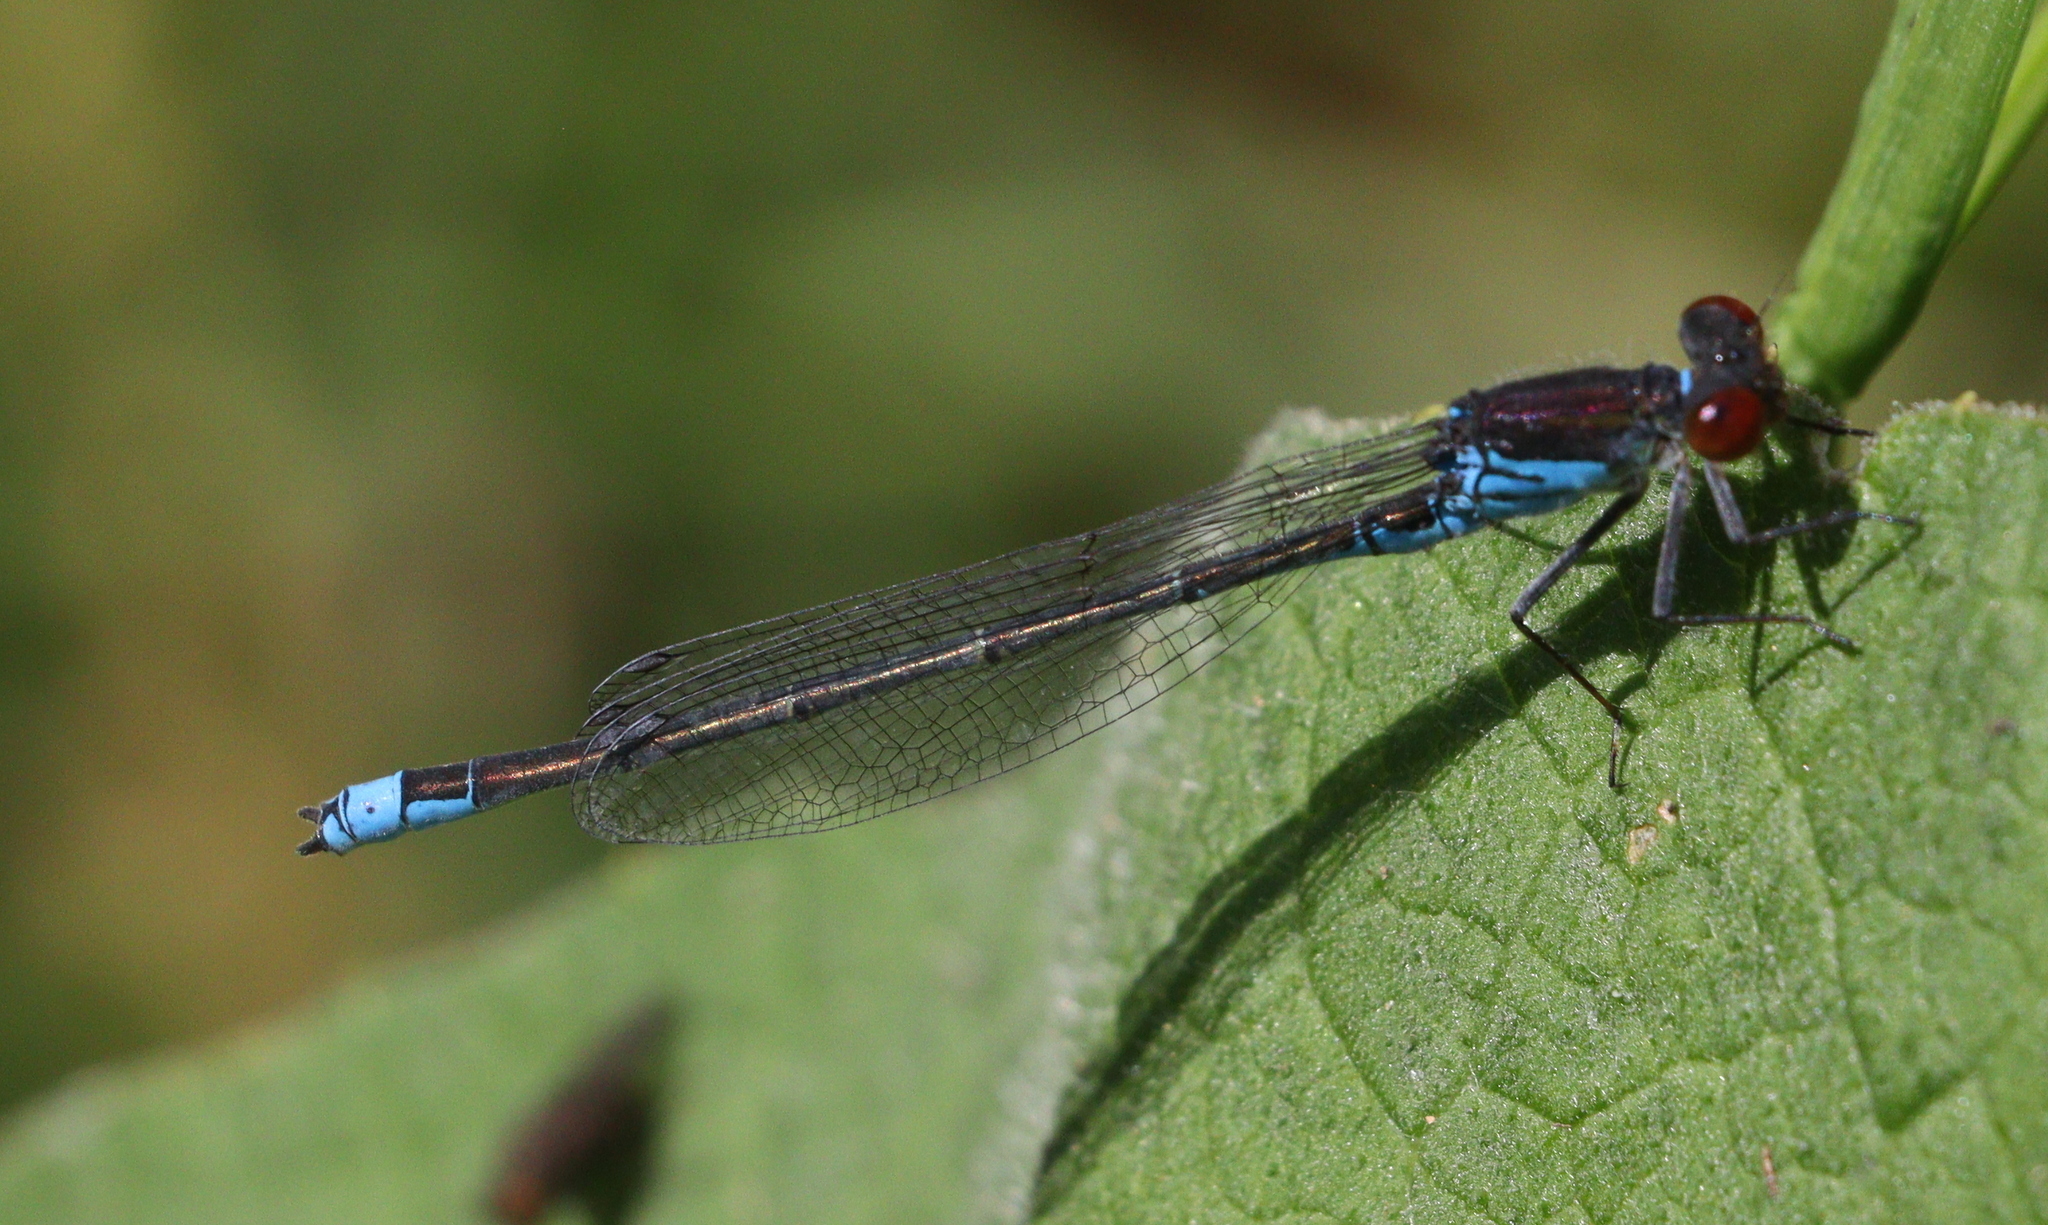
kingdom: Animalia
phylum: Arthropoda
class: Insecta
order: Odonata
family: Coenagrionidae
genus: Erythromma
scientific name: Erythromma viridulum
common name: Small red-eyed damselfly
